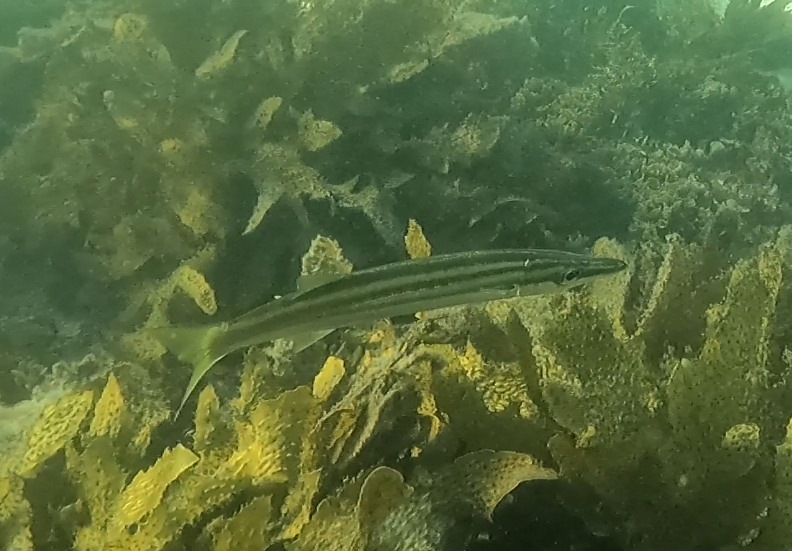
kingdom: Animalia
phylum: Chordata
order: Perciformes
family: Sphyraenidae
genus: Sphyraena
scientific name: Sphyraena obtusata
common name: Obtuse barracuda
